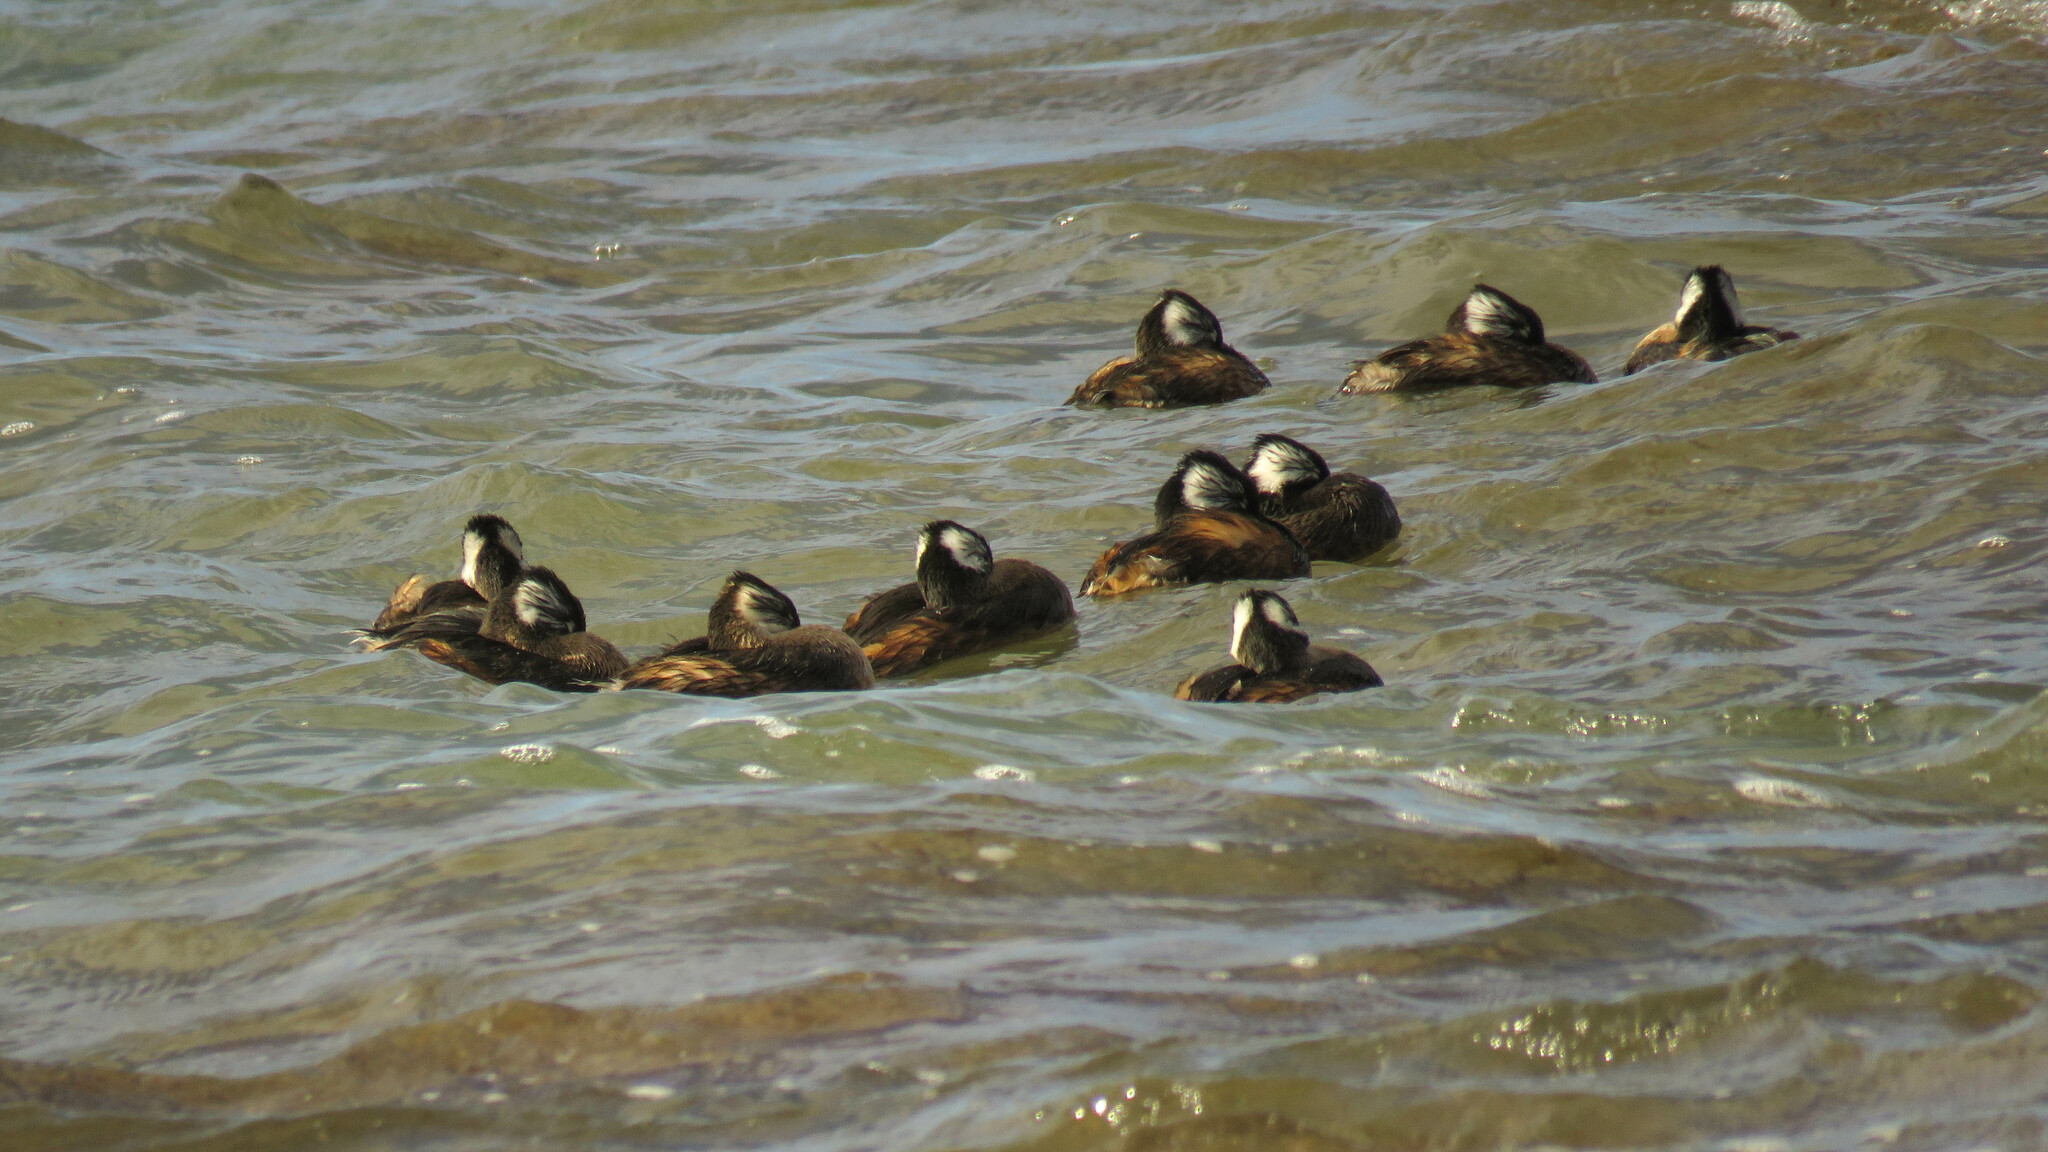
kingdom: Animalia
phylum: Chordata
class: Aves
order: Podicipediformes
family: Podicipedidae
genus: Rollandia
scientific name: Rollandia rolland
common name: White-tufted grebe
